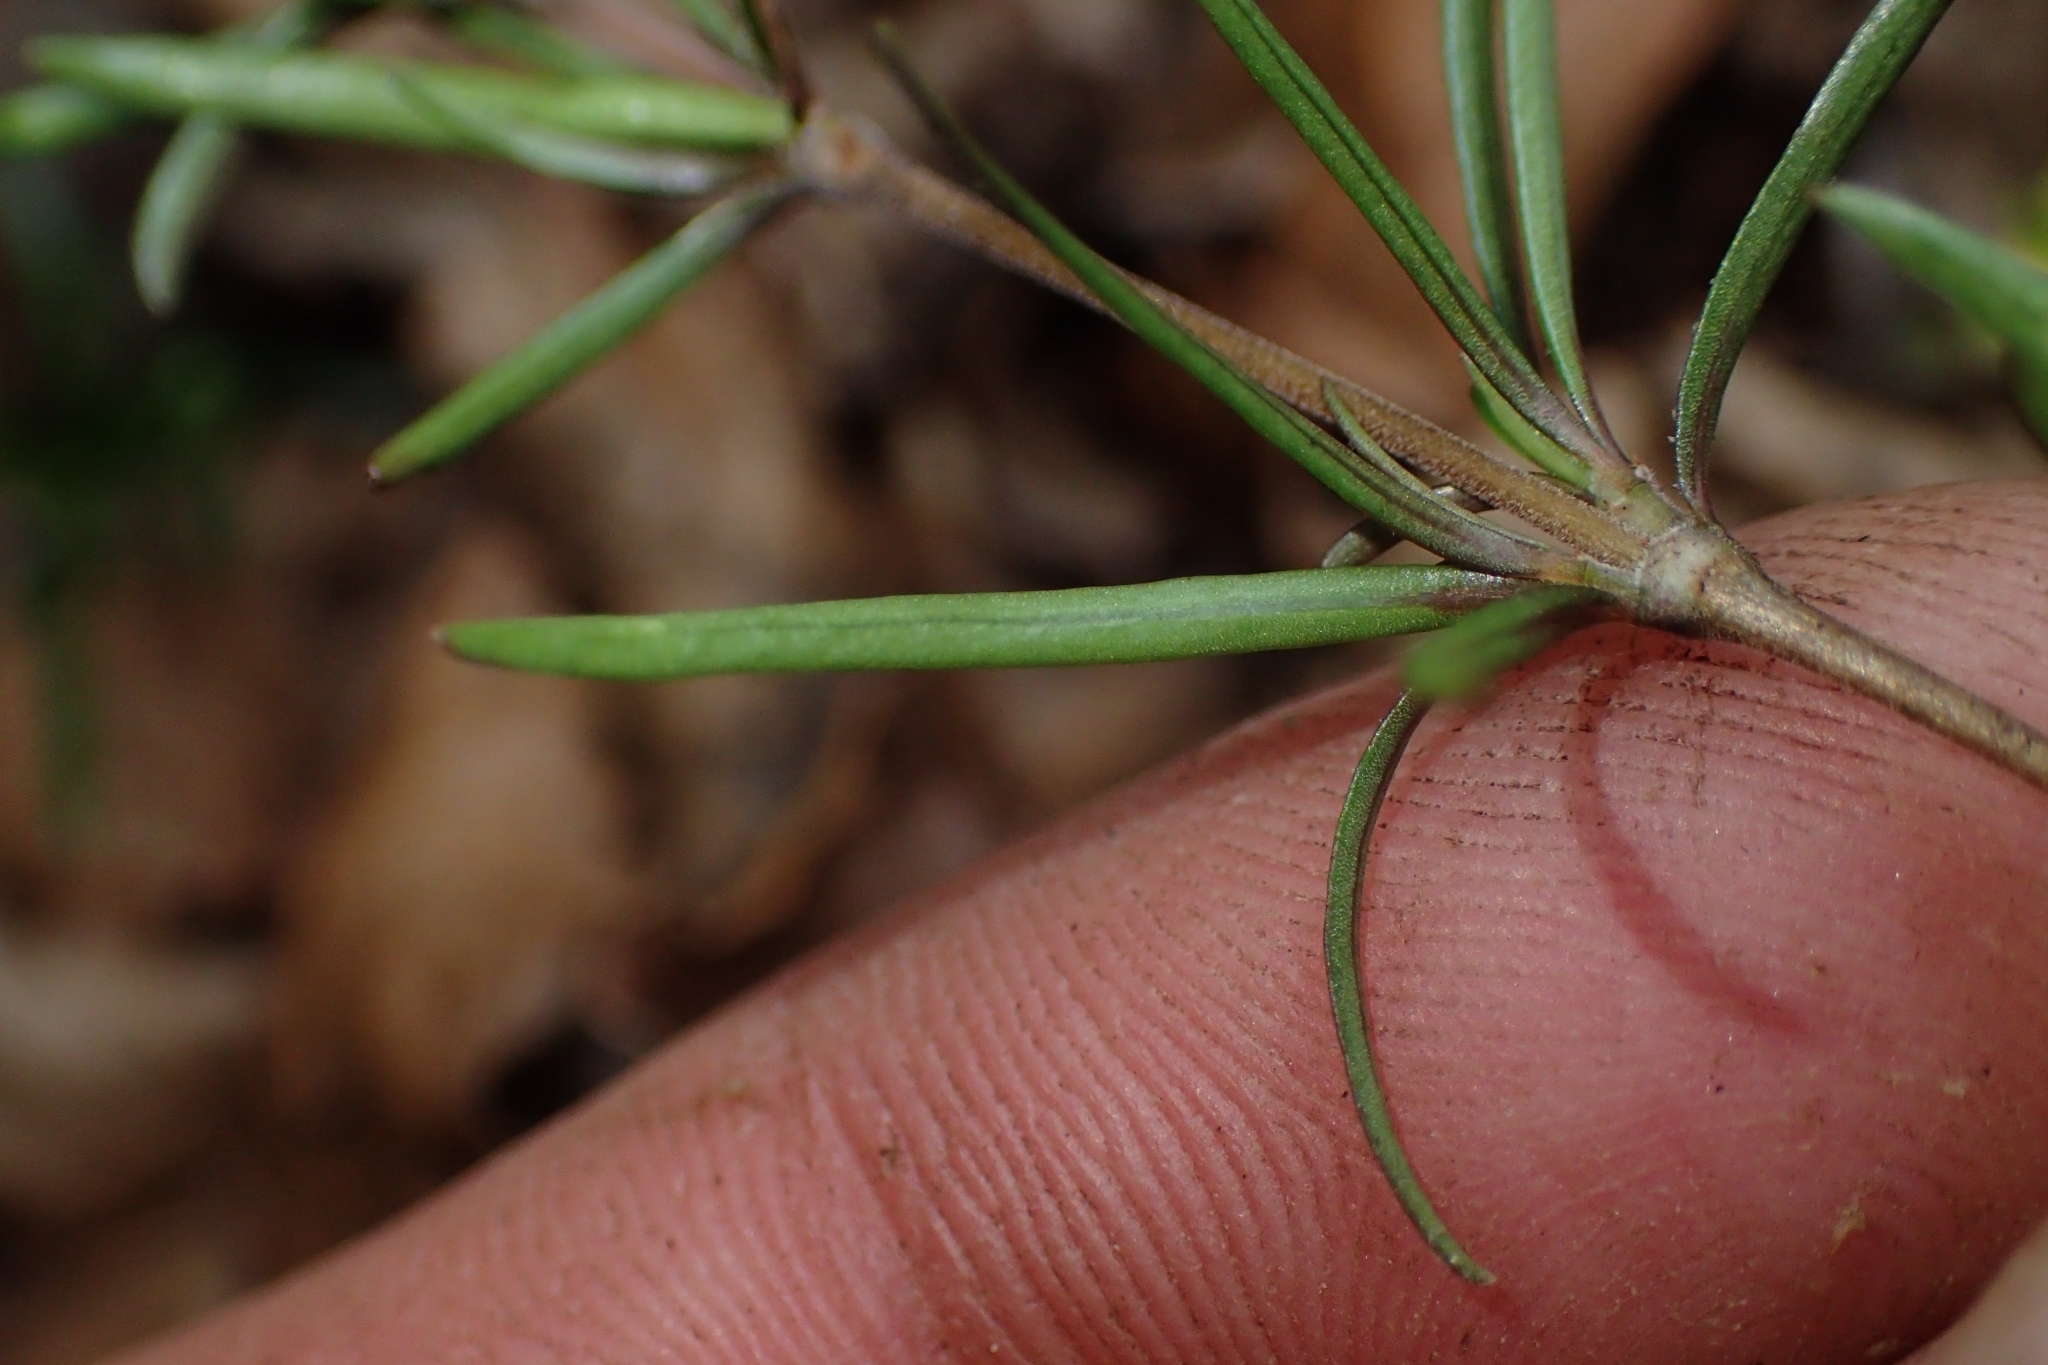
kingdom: Plantae
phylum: Tracheophyta
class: Magnoliopsida
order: Gentianales
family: Rubiaceae
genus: Coprosma
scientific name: Coprosma rugosa
